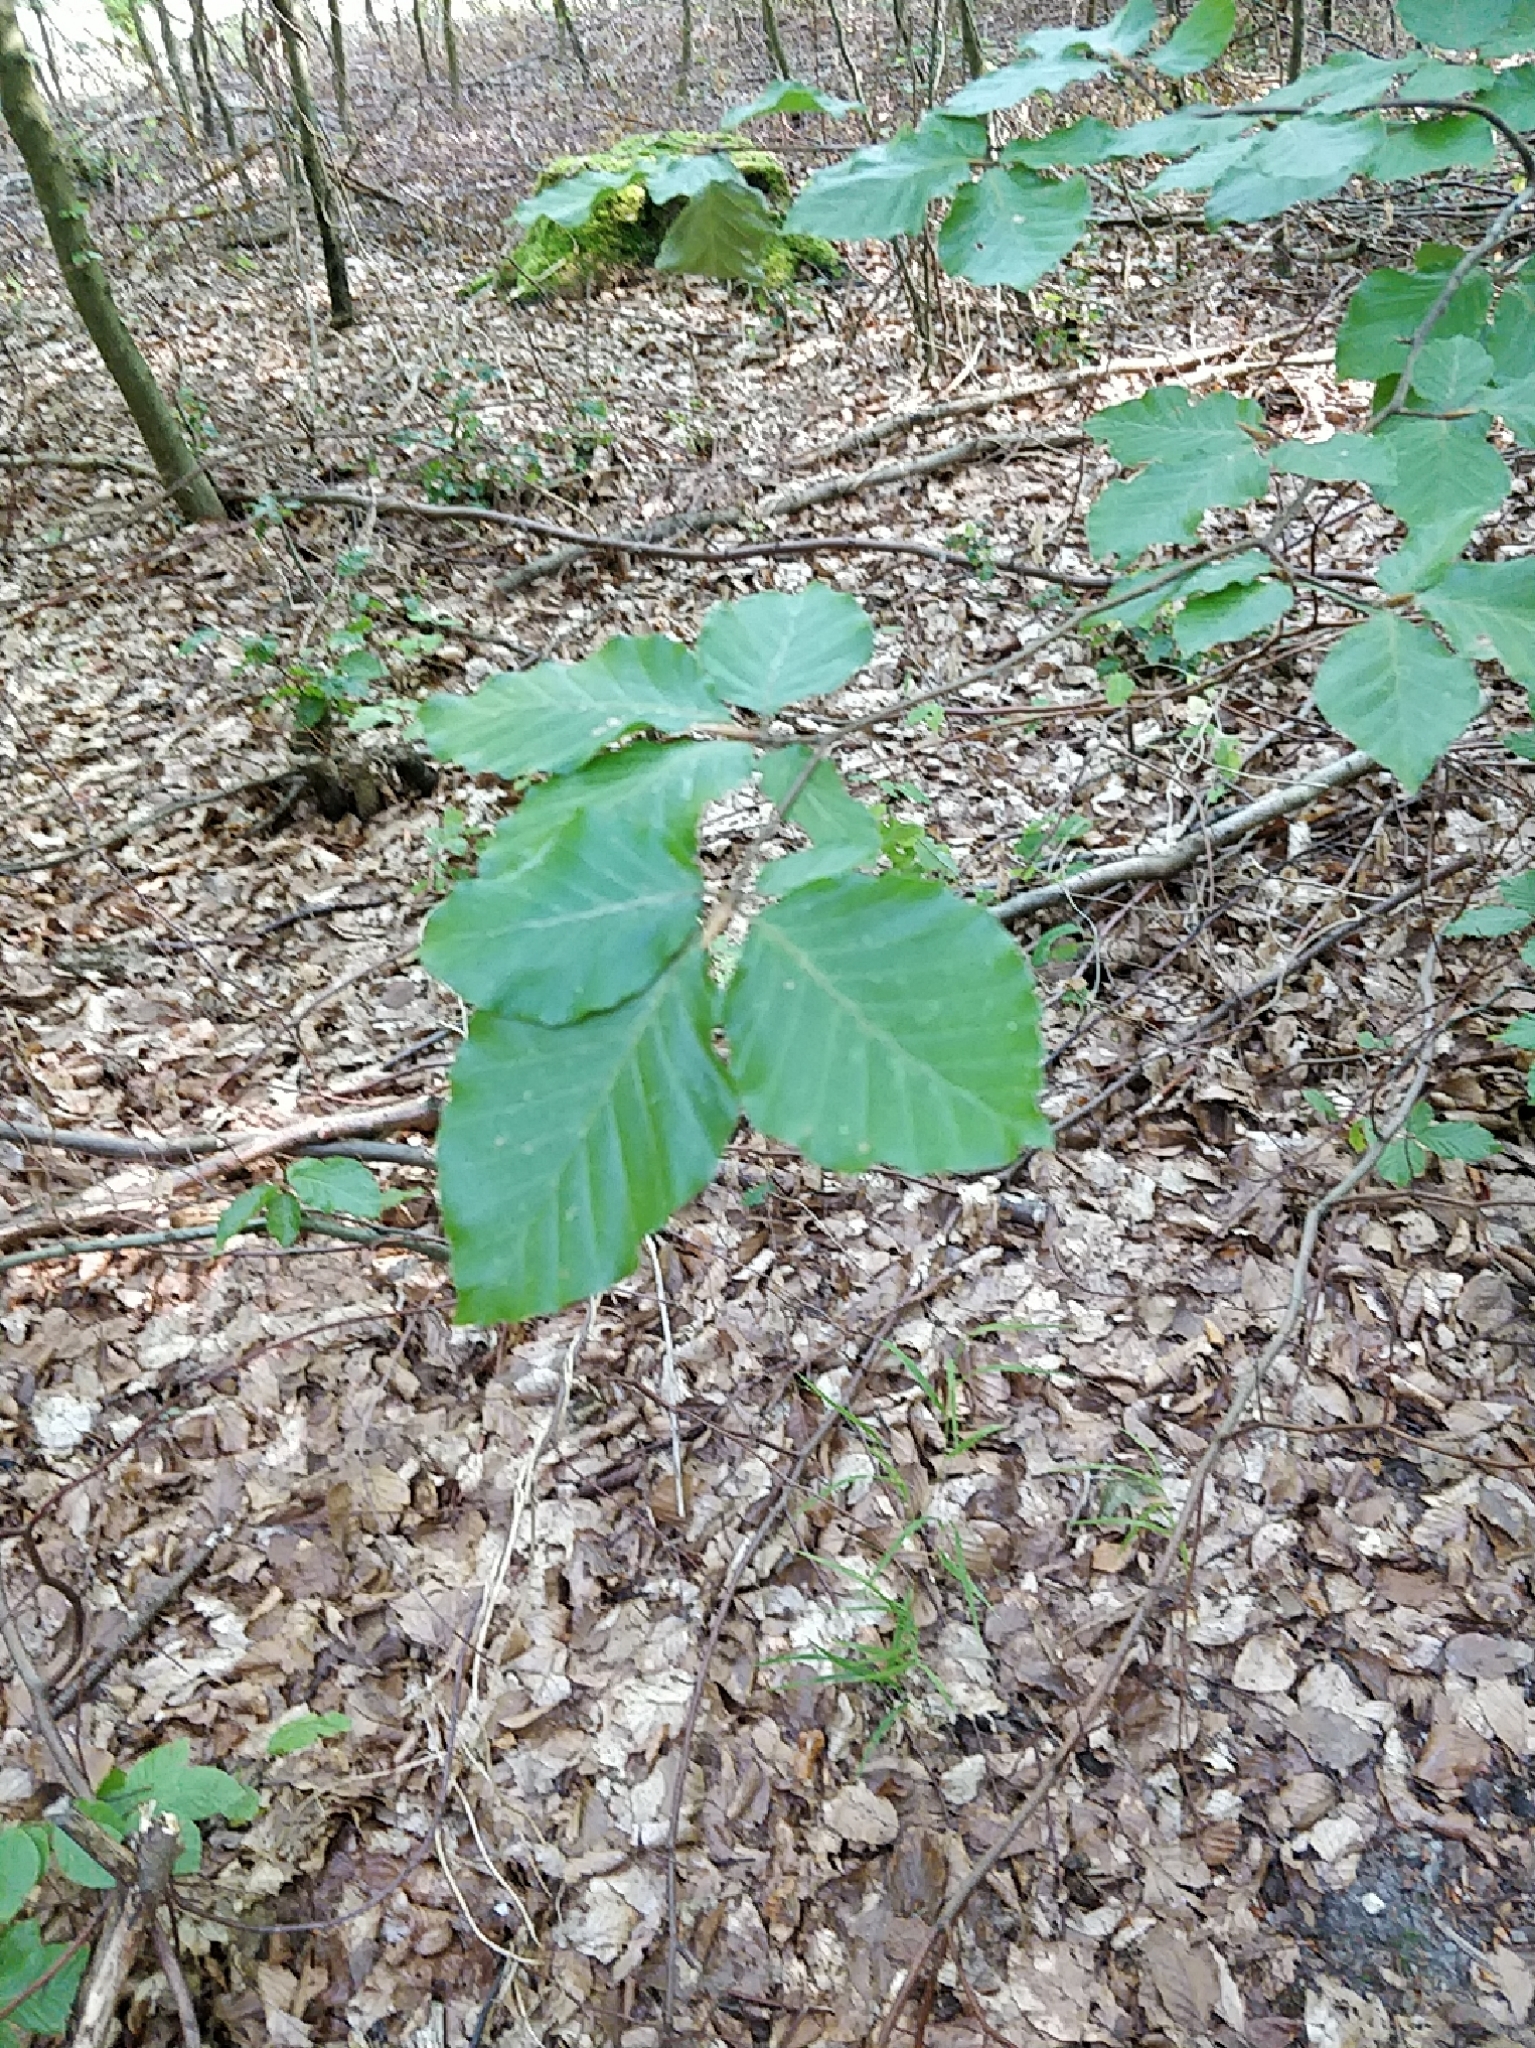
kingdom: Plantae
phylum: Tracheophyta
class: Magnoliopsida
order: Fagales
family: Fagaceae
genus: Fagus
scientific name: Fagus sylvatica
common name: Beech
